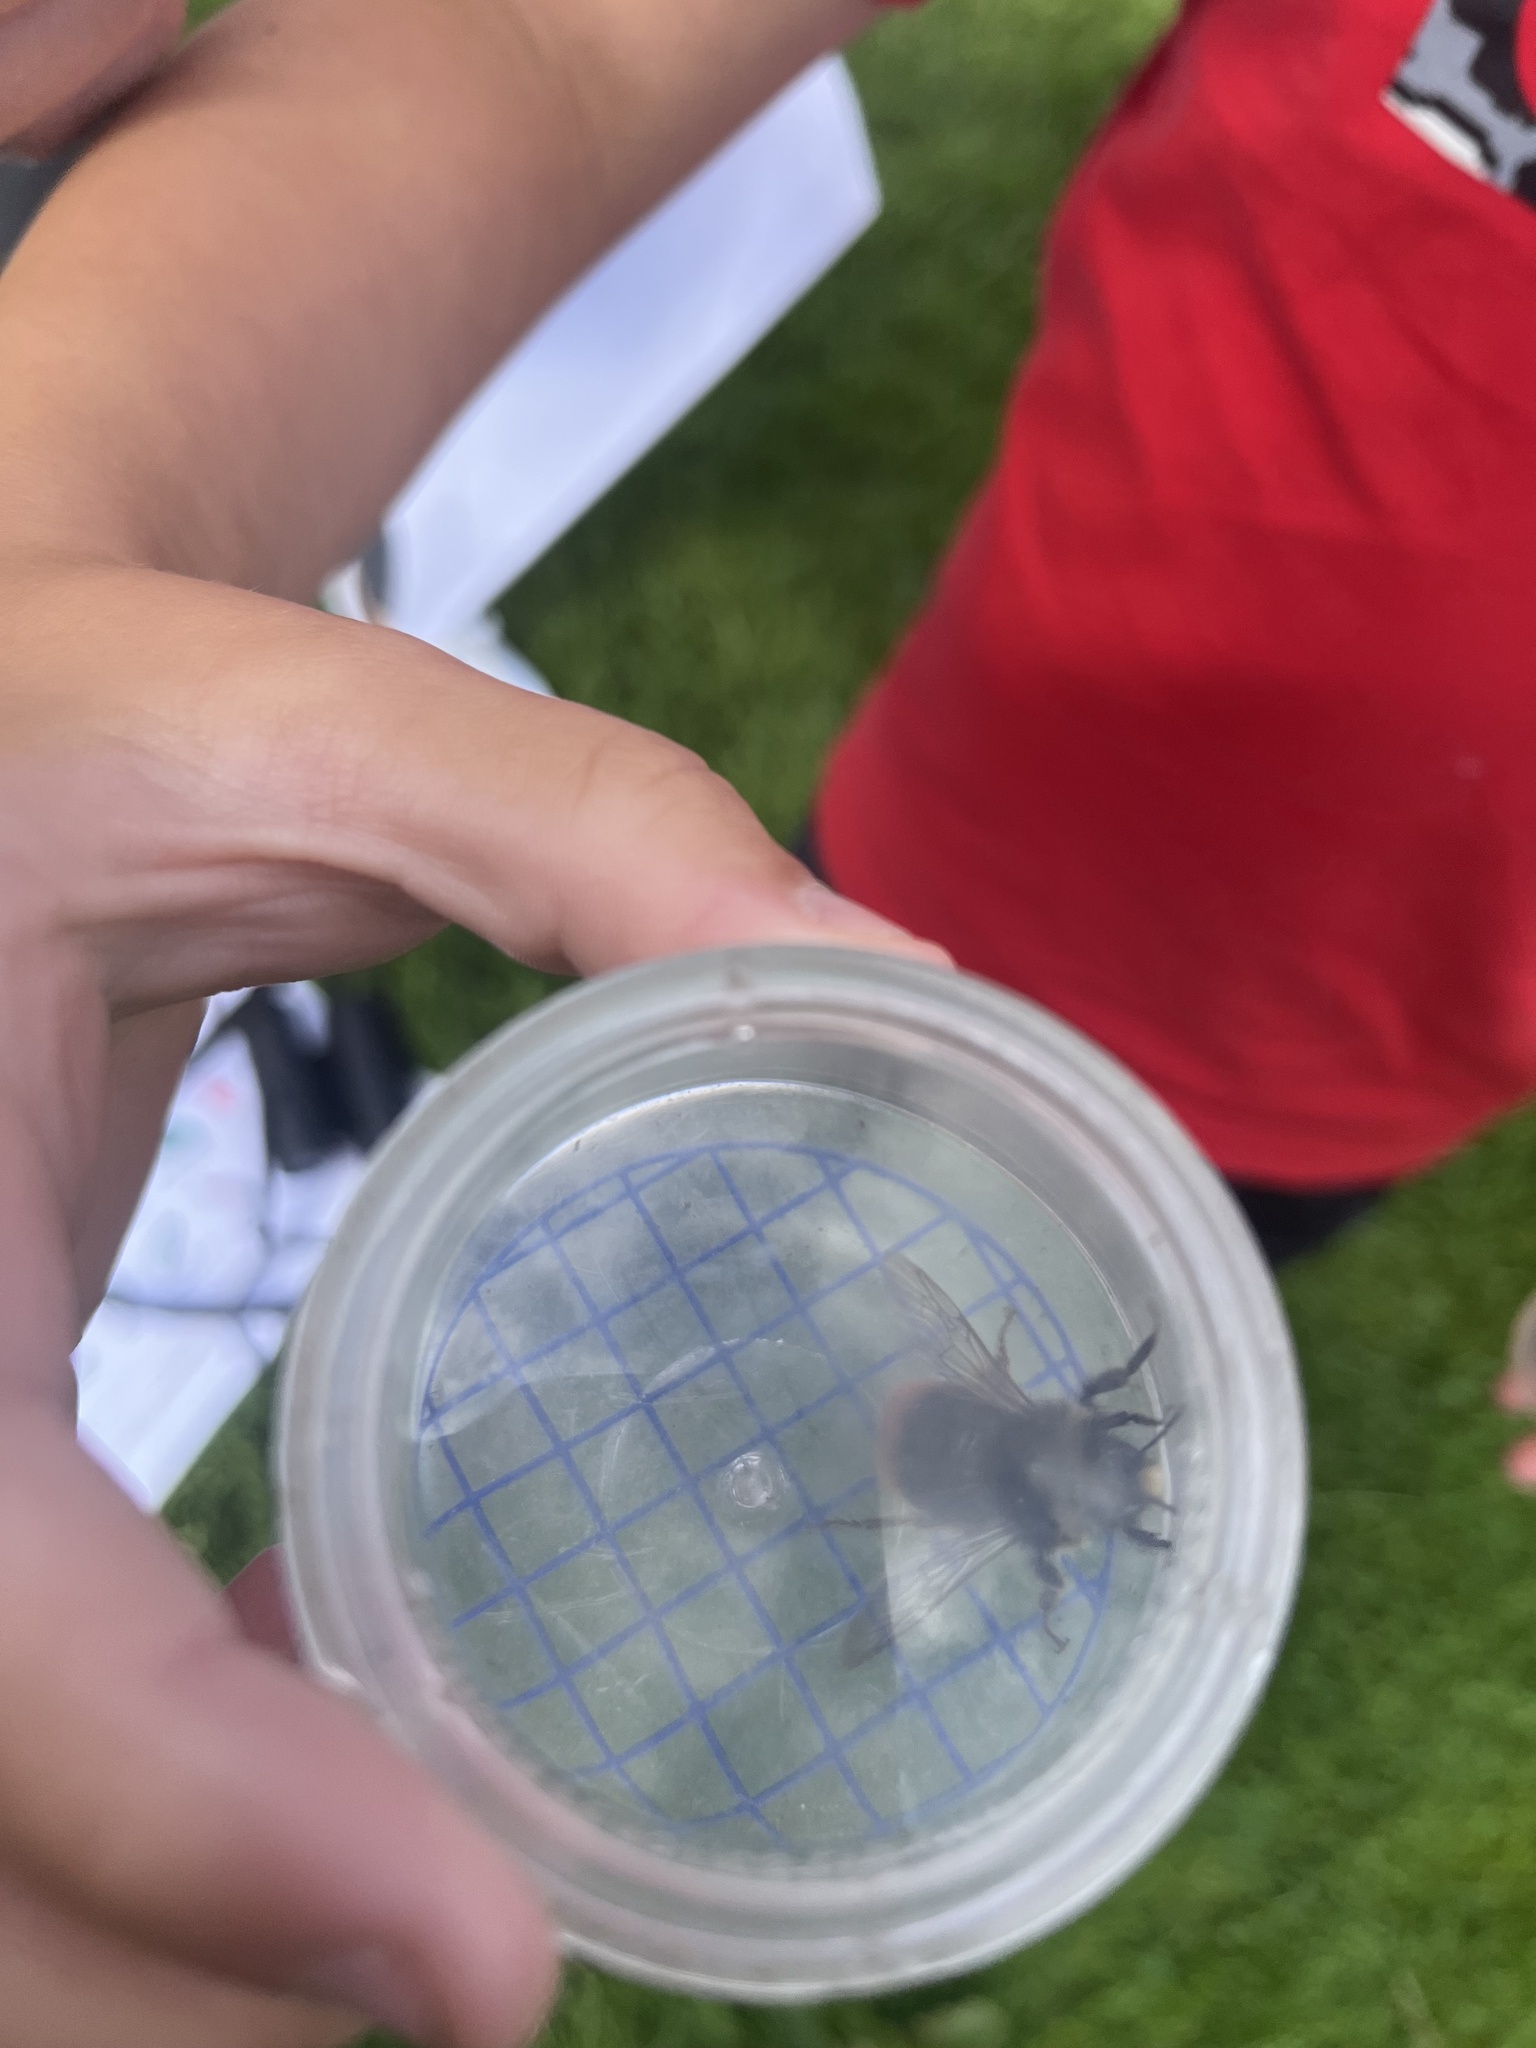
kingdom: Animalia
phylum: Arthropoda
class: Insecta
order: Hymenoptera
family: Apidae
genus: Bombus
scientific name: Bombus lapidarius
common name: Large red-tailed humble-bee
